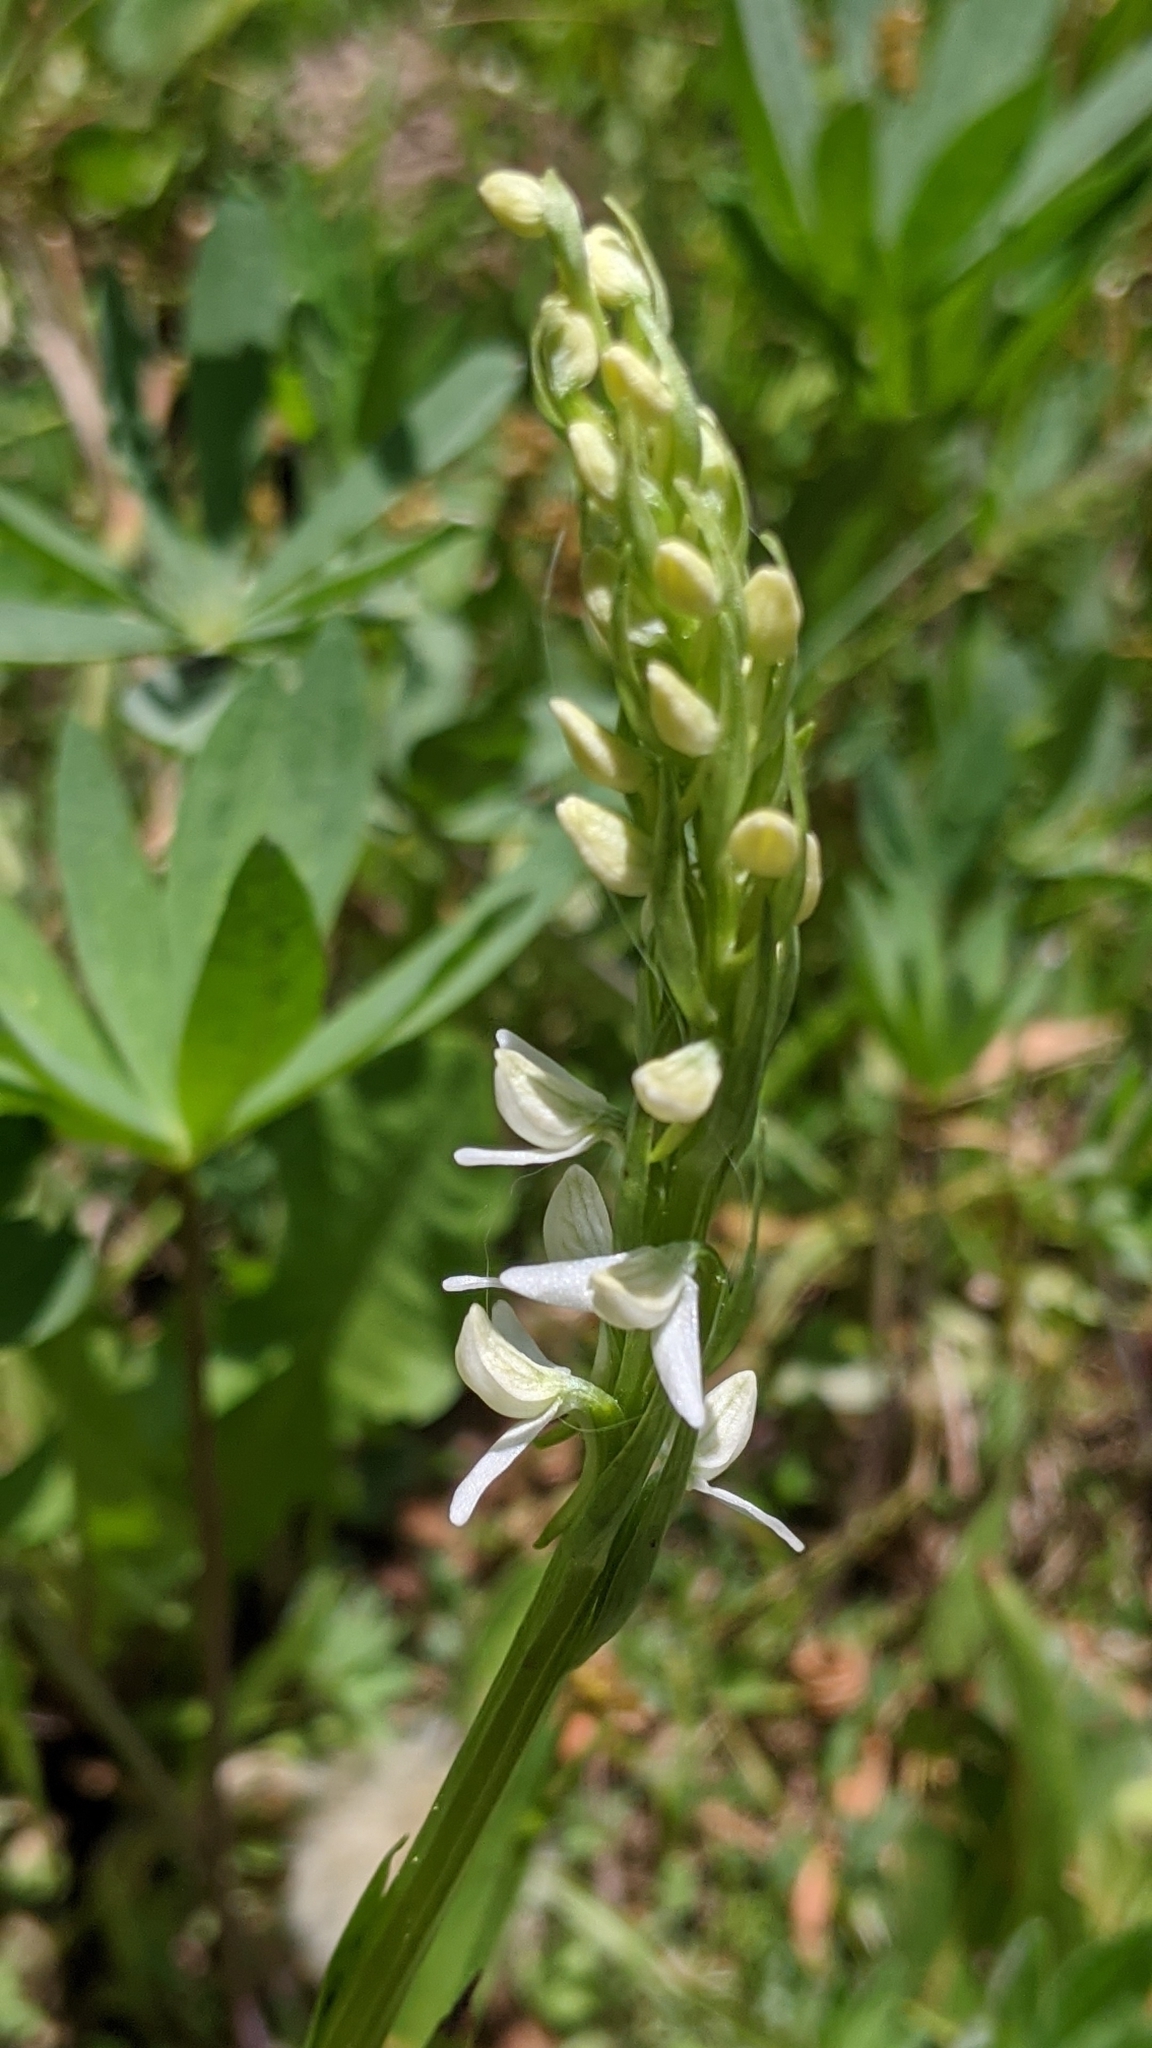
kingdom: Plantae
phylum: Tracheophyta
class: Liliopsida
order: Asparagales
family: Orchidaceae
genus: Platanthera
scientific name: Platanthera dilatata
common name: Bog candles
